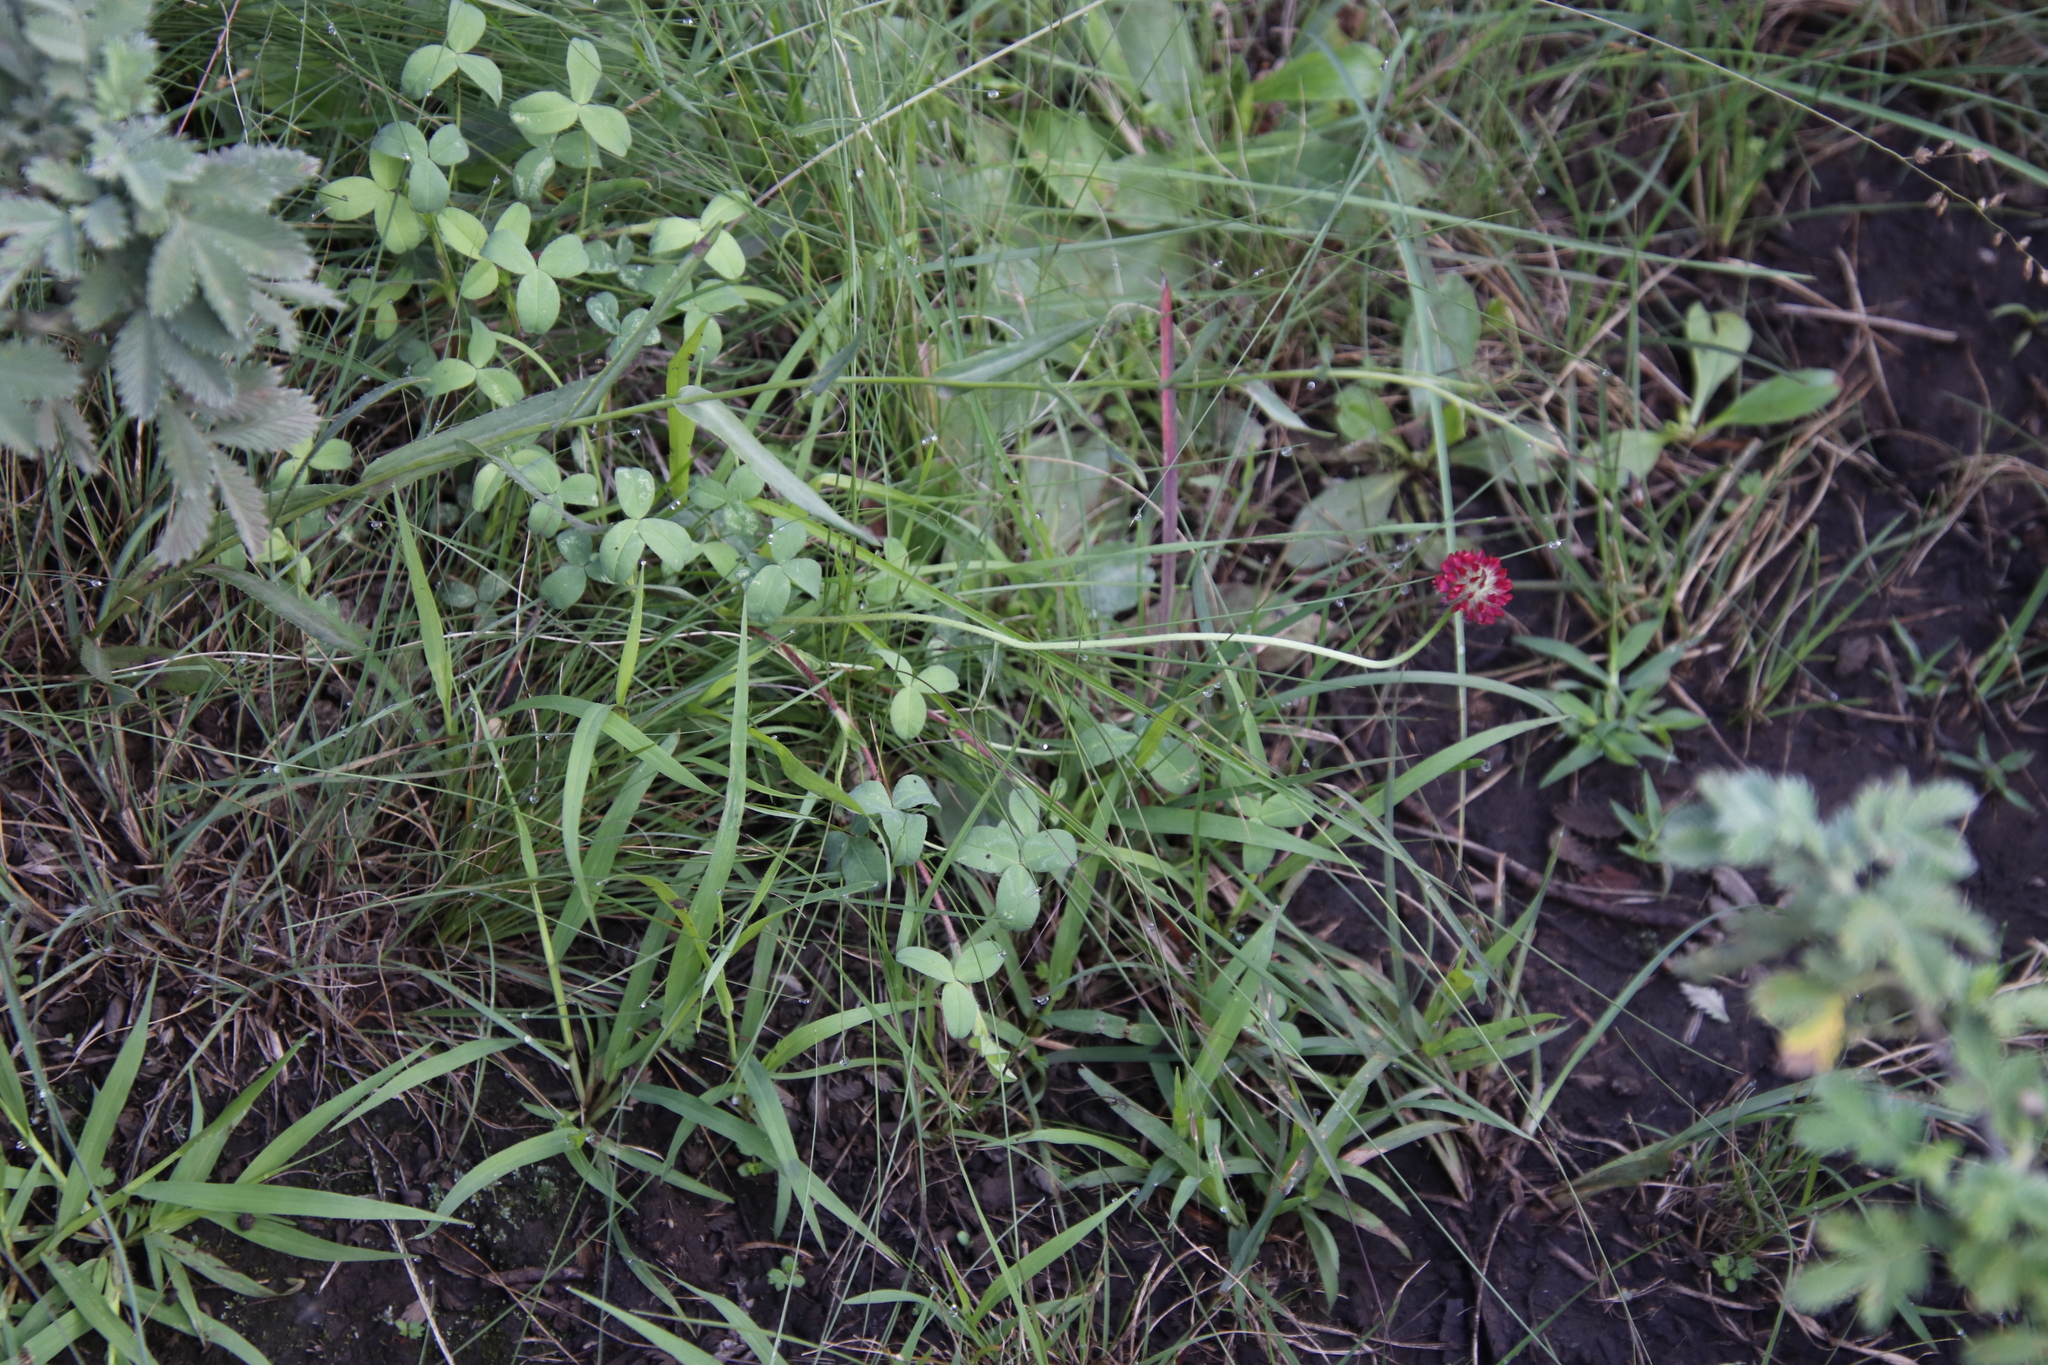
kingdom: Plantae
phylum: Tracheophyta
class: Magnoliopsida
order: Fabales
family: Fabaceae
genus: Trifolium
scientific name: Trifolium burchellianum
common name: Burchell's clover
